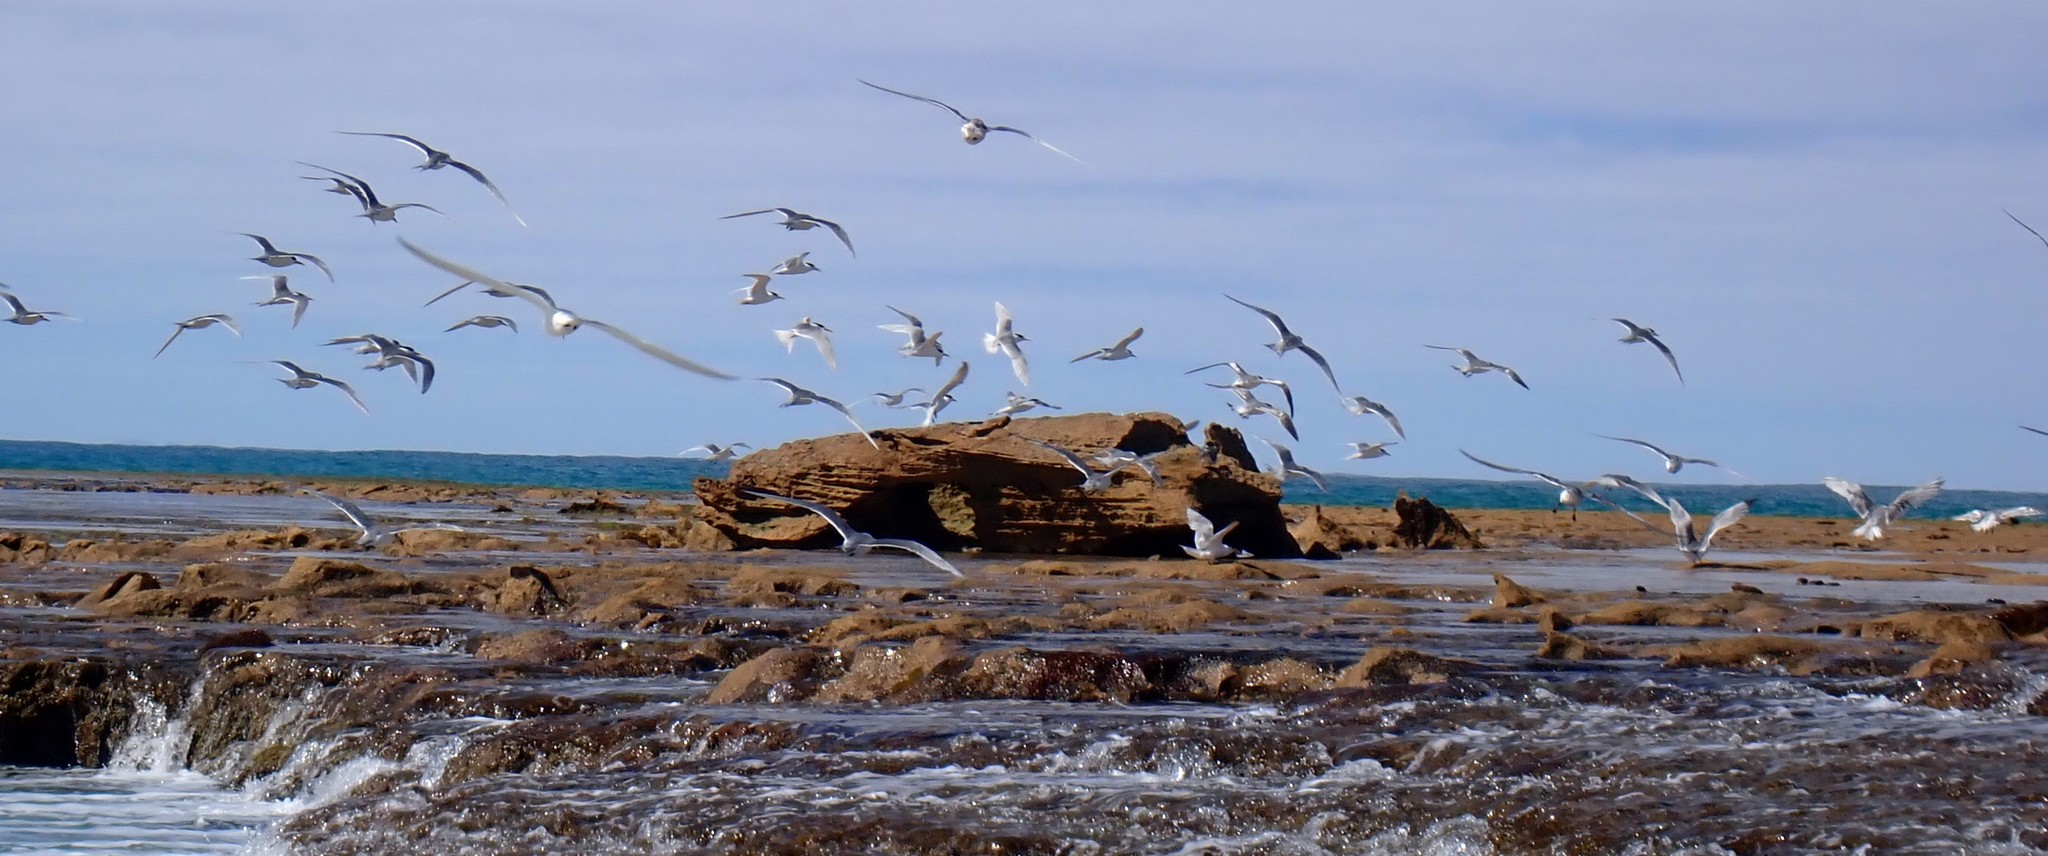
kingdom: Animalia
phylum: Chordata
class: Aves
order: Charadriiformes
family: Laridae
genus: Thalasseus
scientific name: Thalasseus bergii
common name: Greater crested tern
